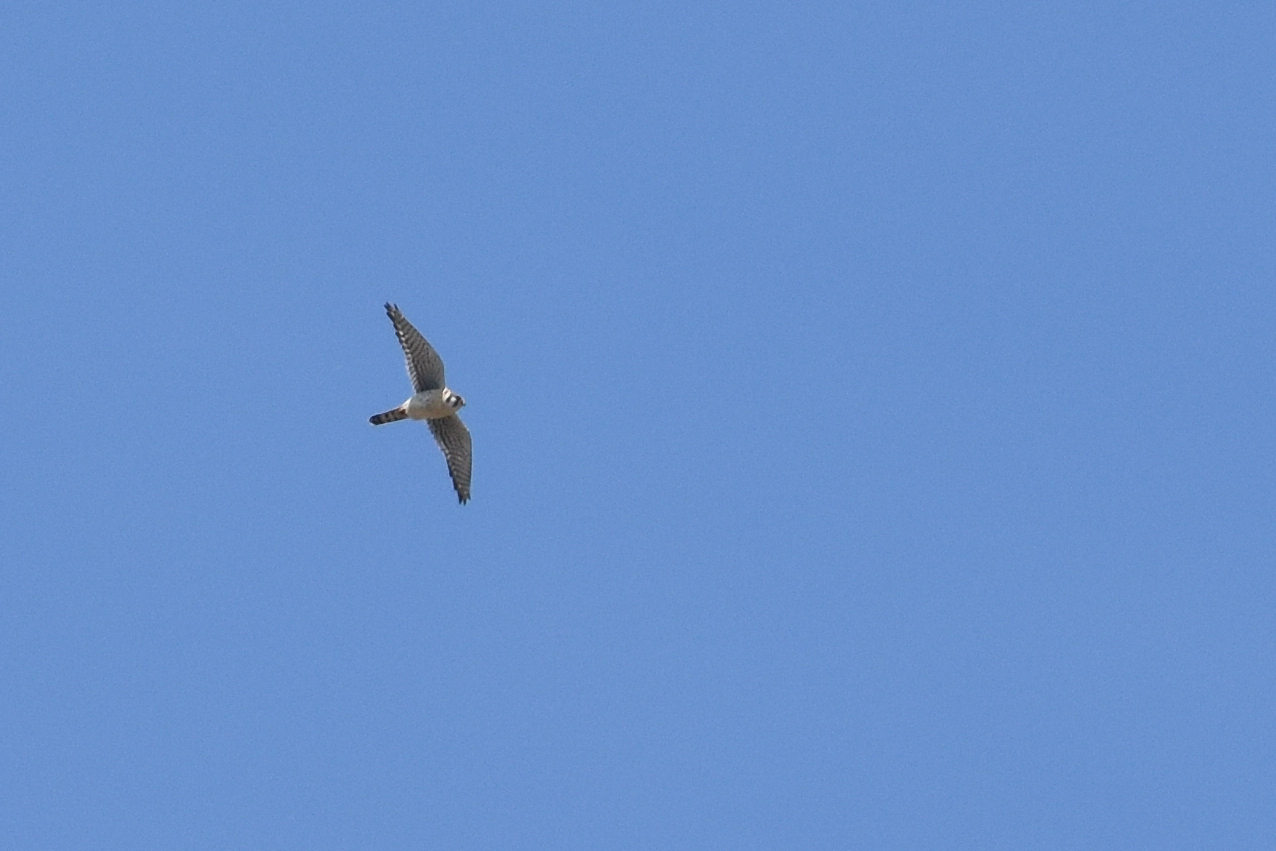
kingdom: Animalia
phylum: Chordata
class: Aves
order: Falconiformes
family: Falconidae
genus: Falco
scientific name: Falco sparverius
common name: American kestrel
